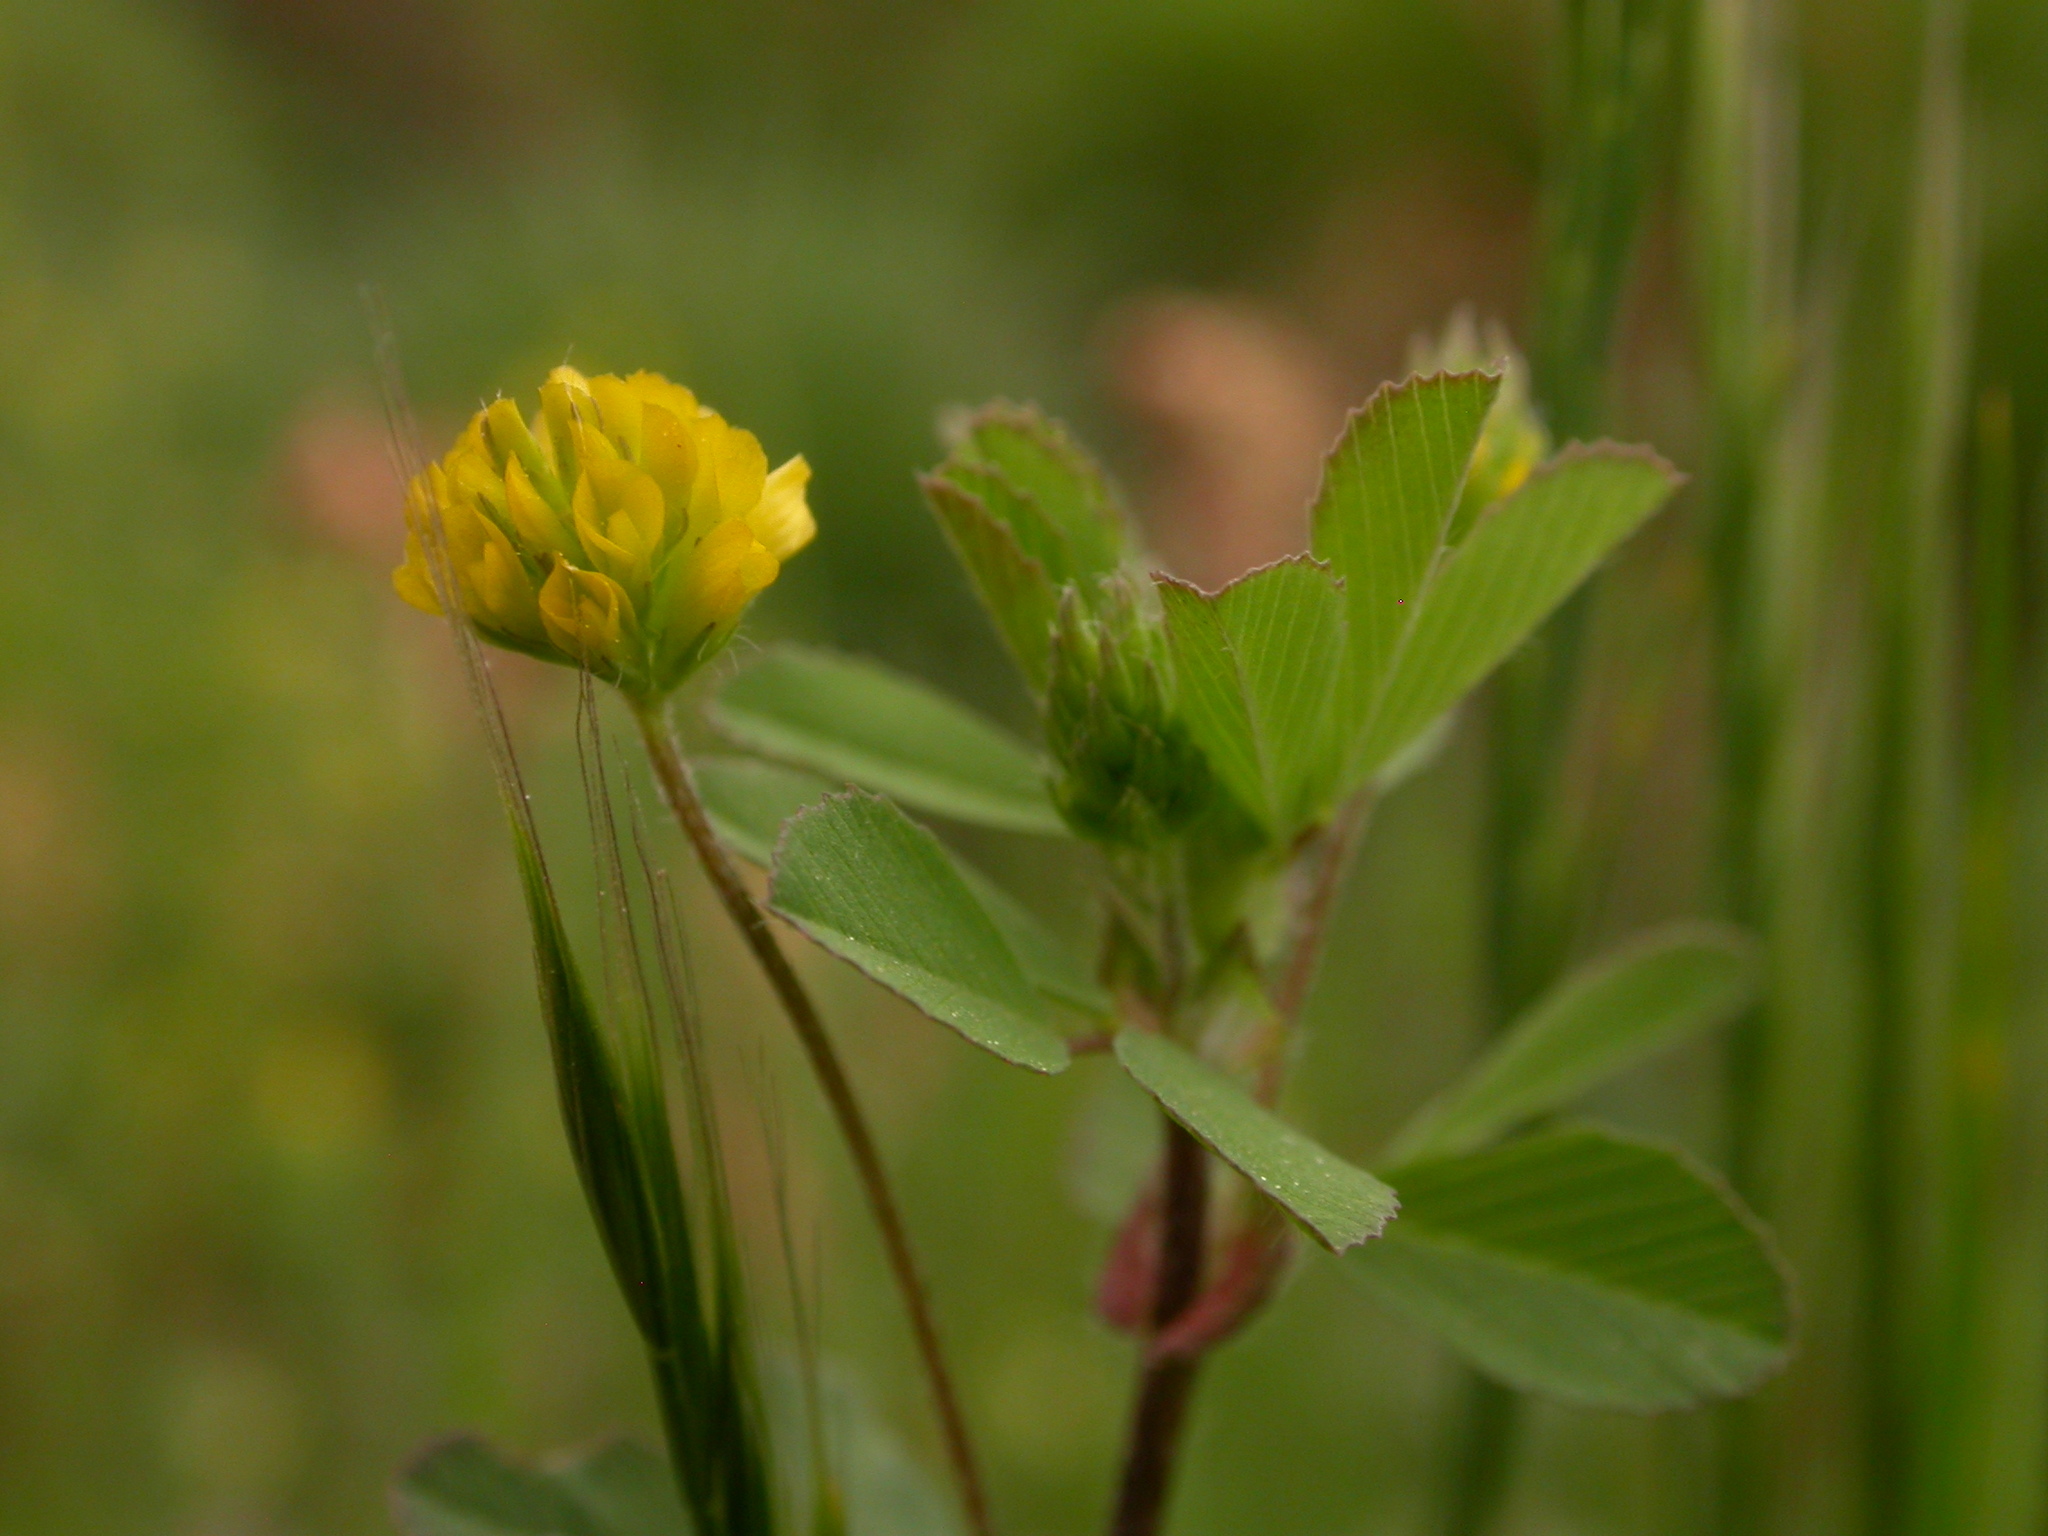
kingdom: Plantae
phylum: Tracheophyta
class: Magnoliopsida
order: Fabales
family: Fabaceae
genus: Trifolium
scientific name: Trifolium dubium
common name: Suckling clover
